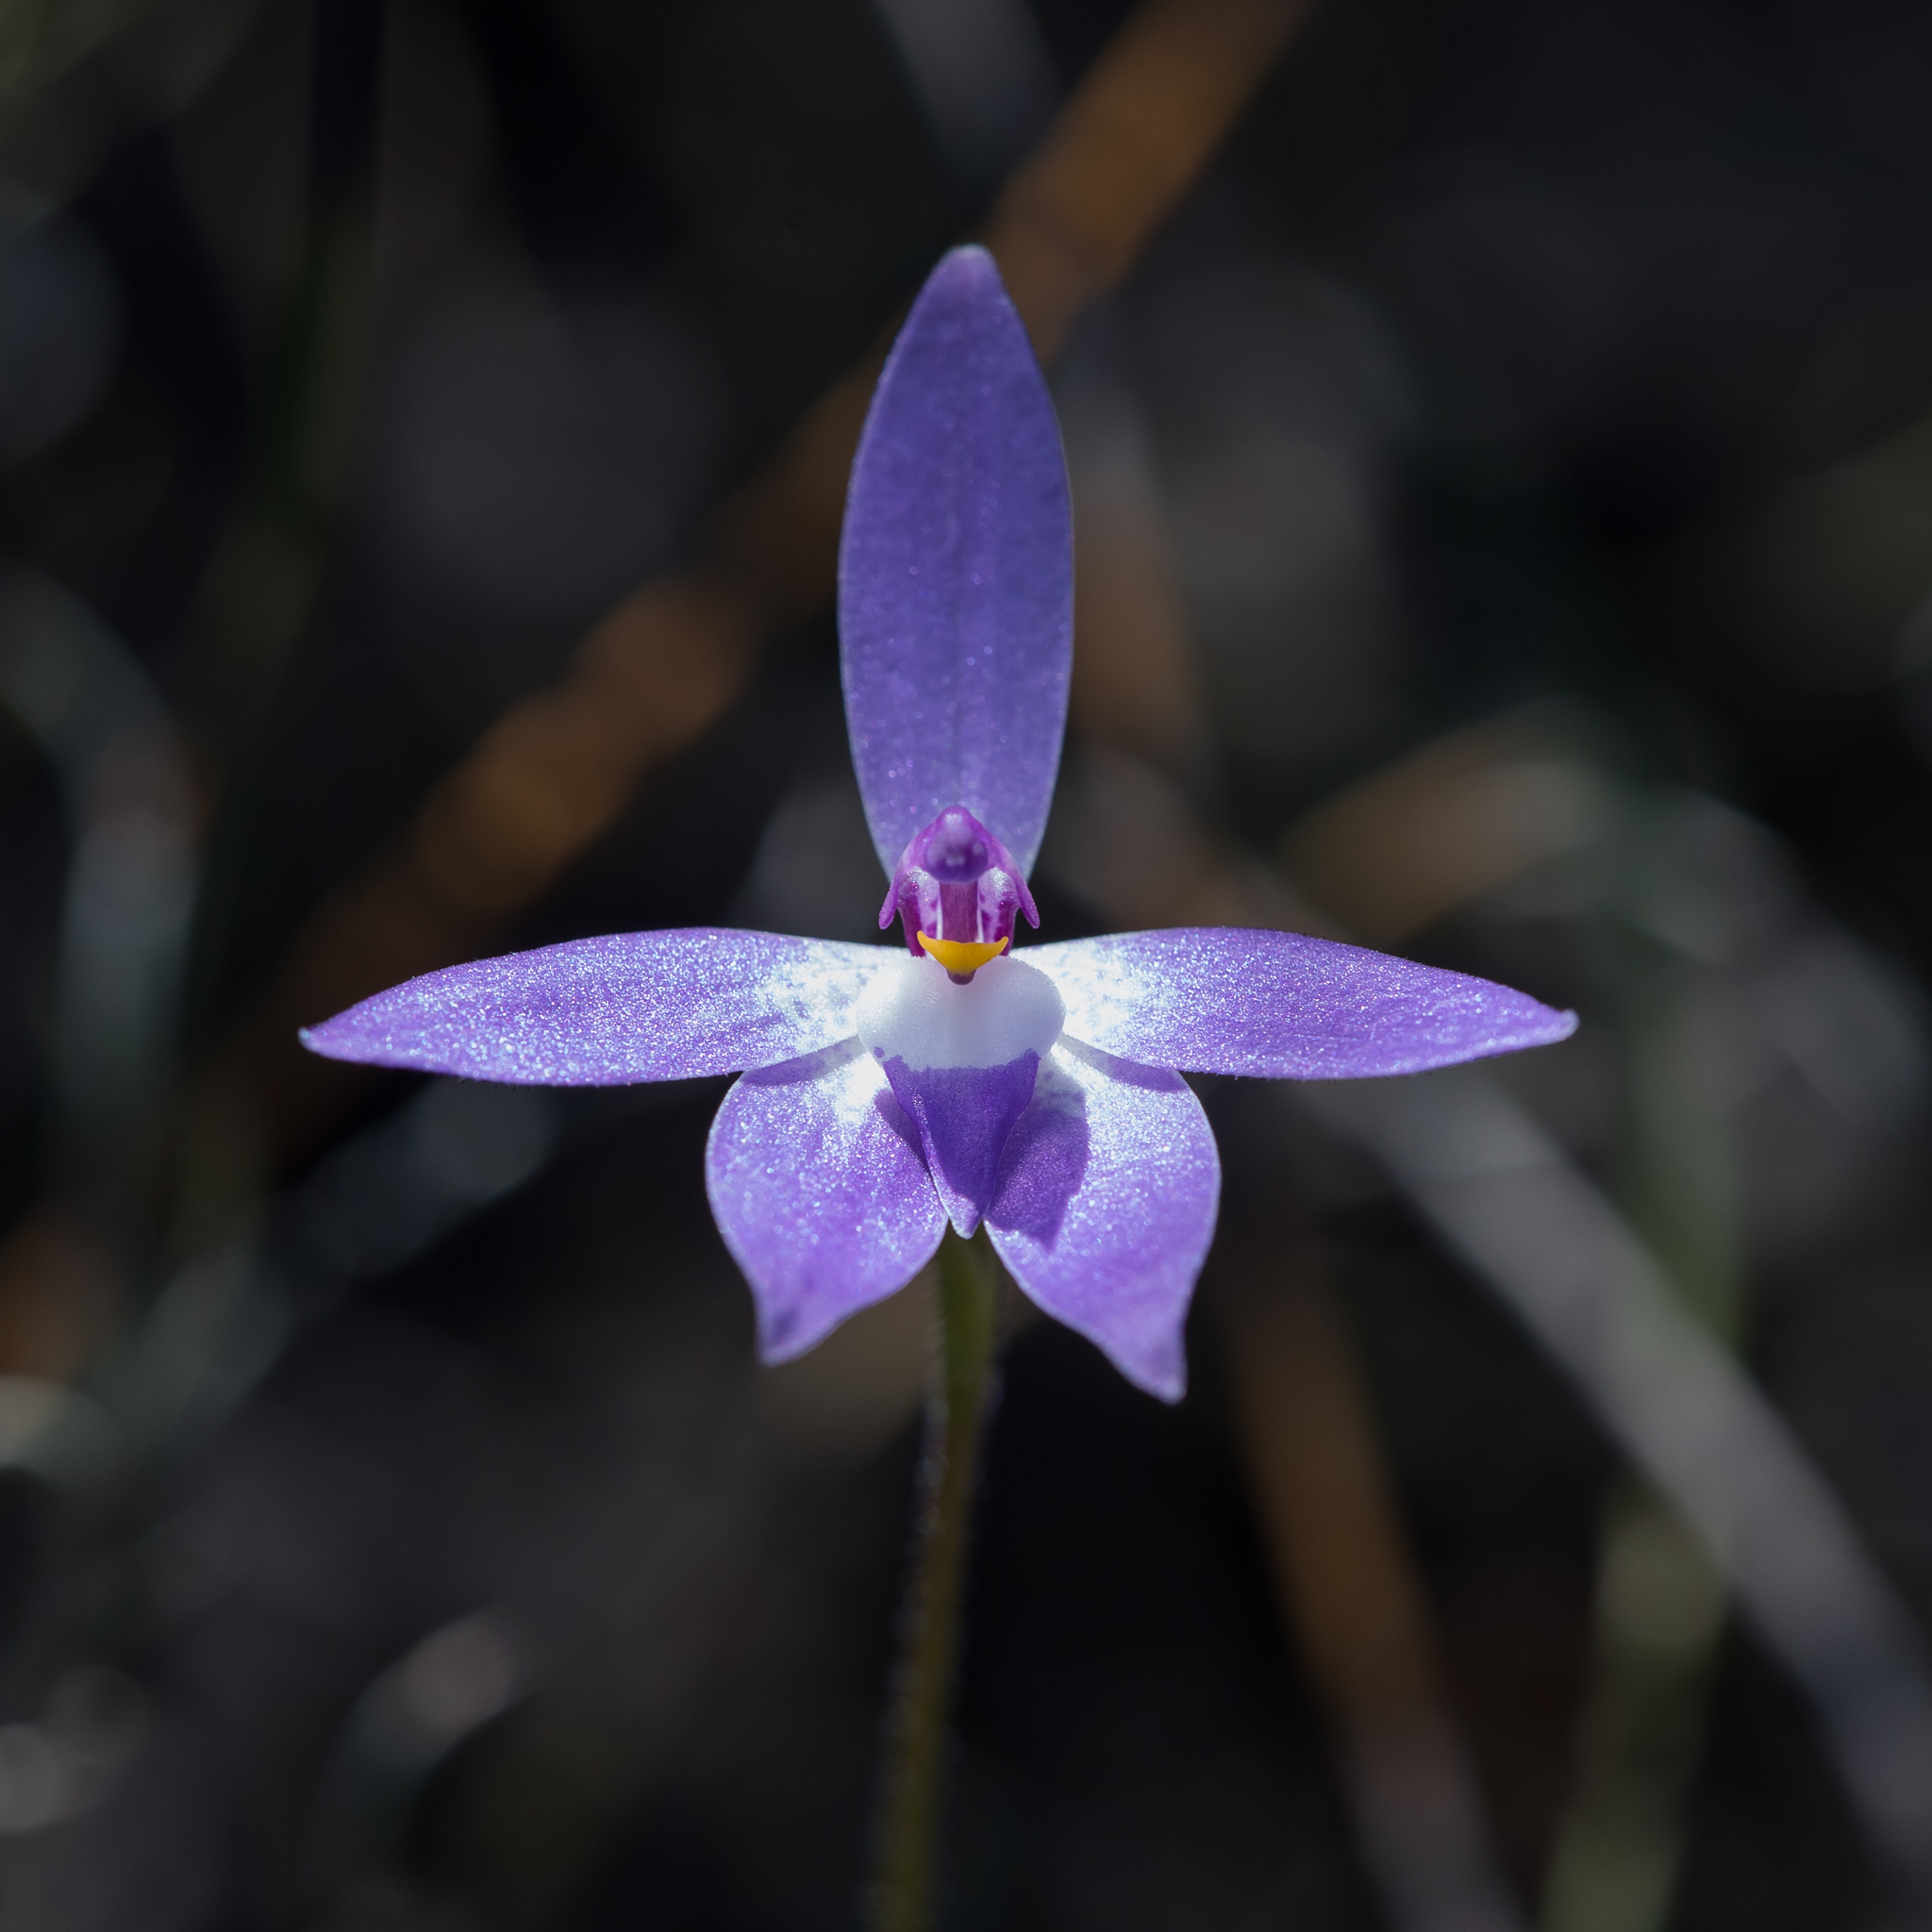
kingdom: Plantae
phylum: Tracheophyta
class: Liliopsida
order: Asparagales
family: Orchidaceae
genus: Caladenia
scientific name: Caladenia major
